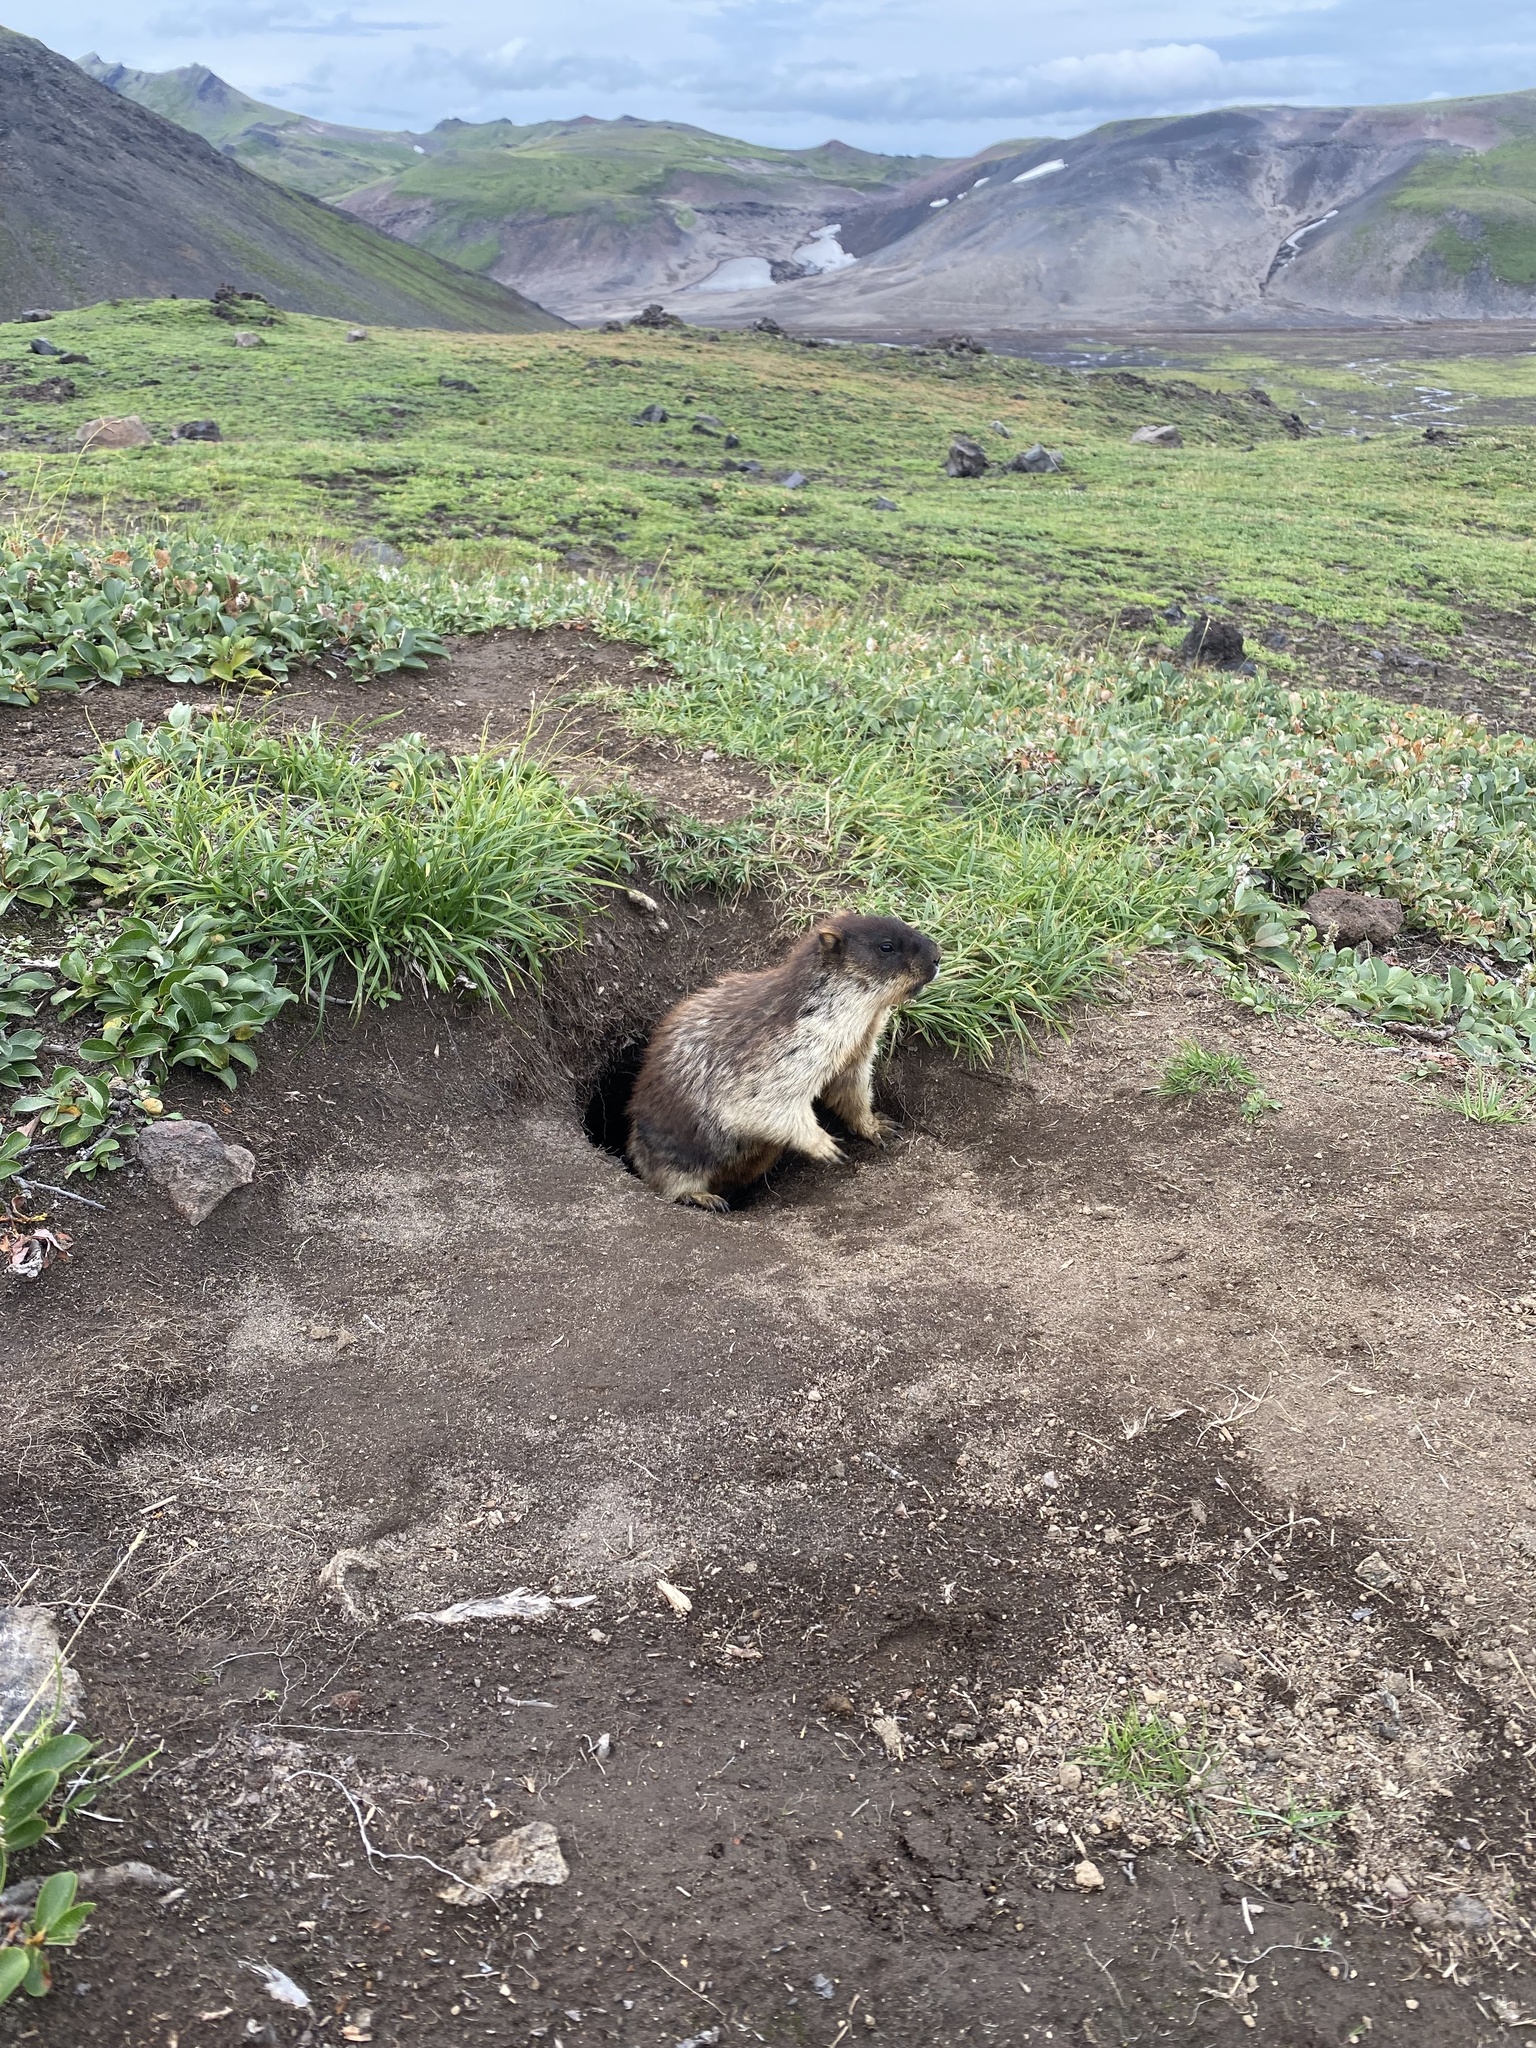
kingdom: Animalia
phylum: Chordata
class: Mammalia
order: Rodentia
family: Sciuridae
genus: Marmota
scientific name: Marmota camtschatica
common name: Black-capped marmot
